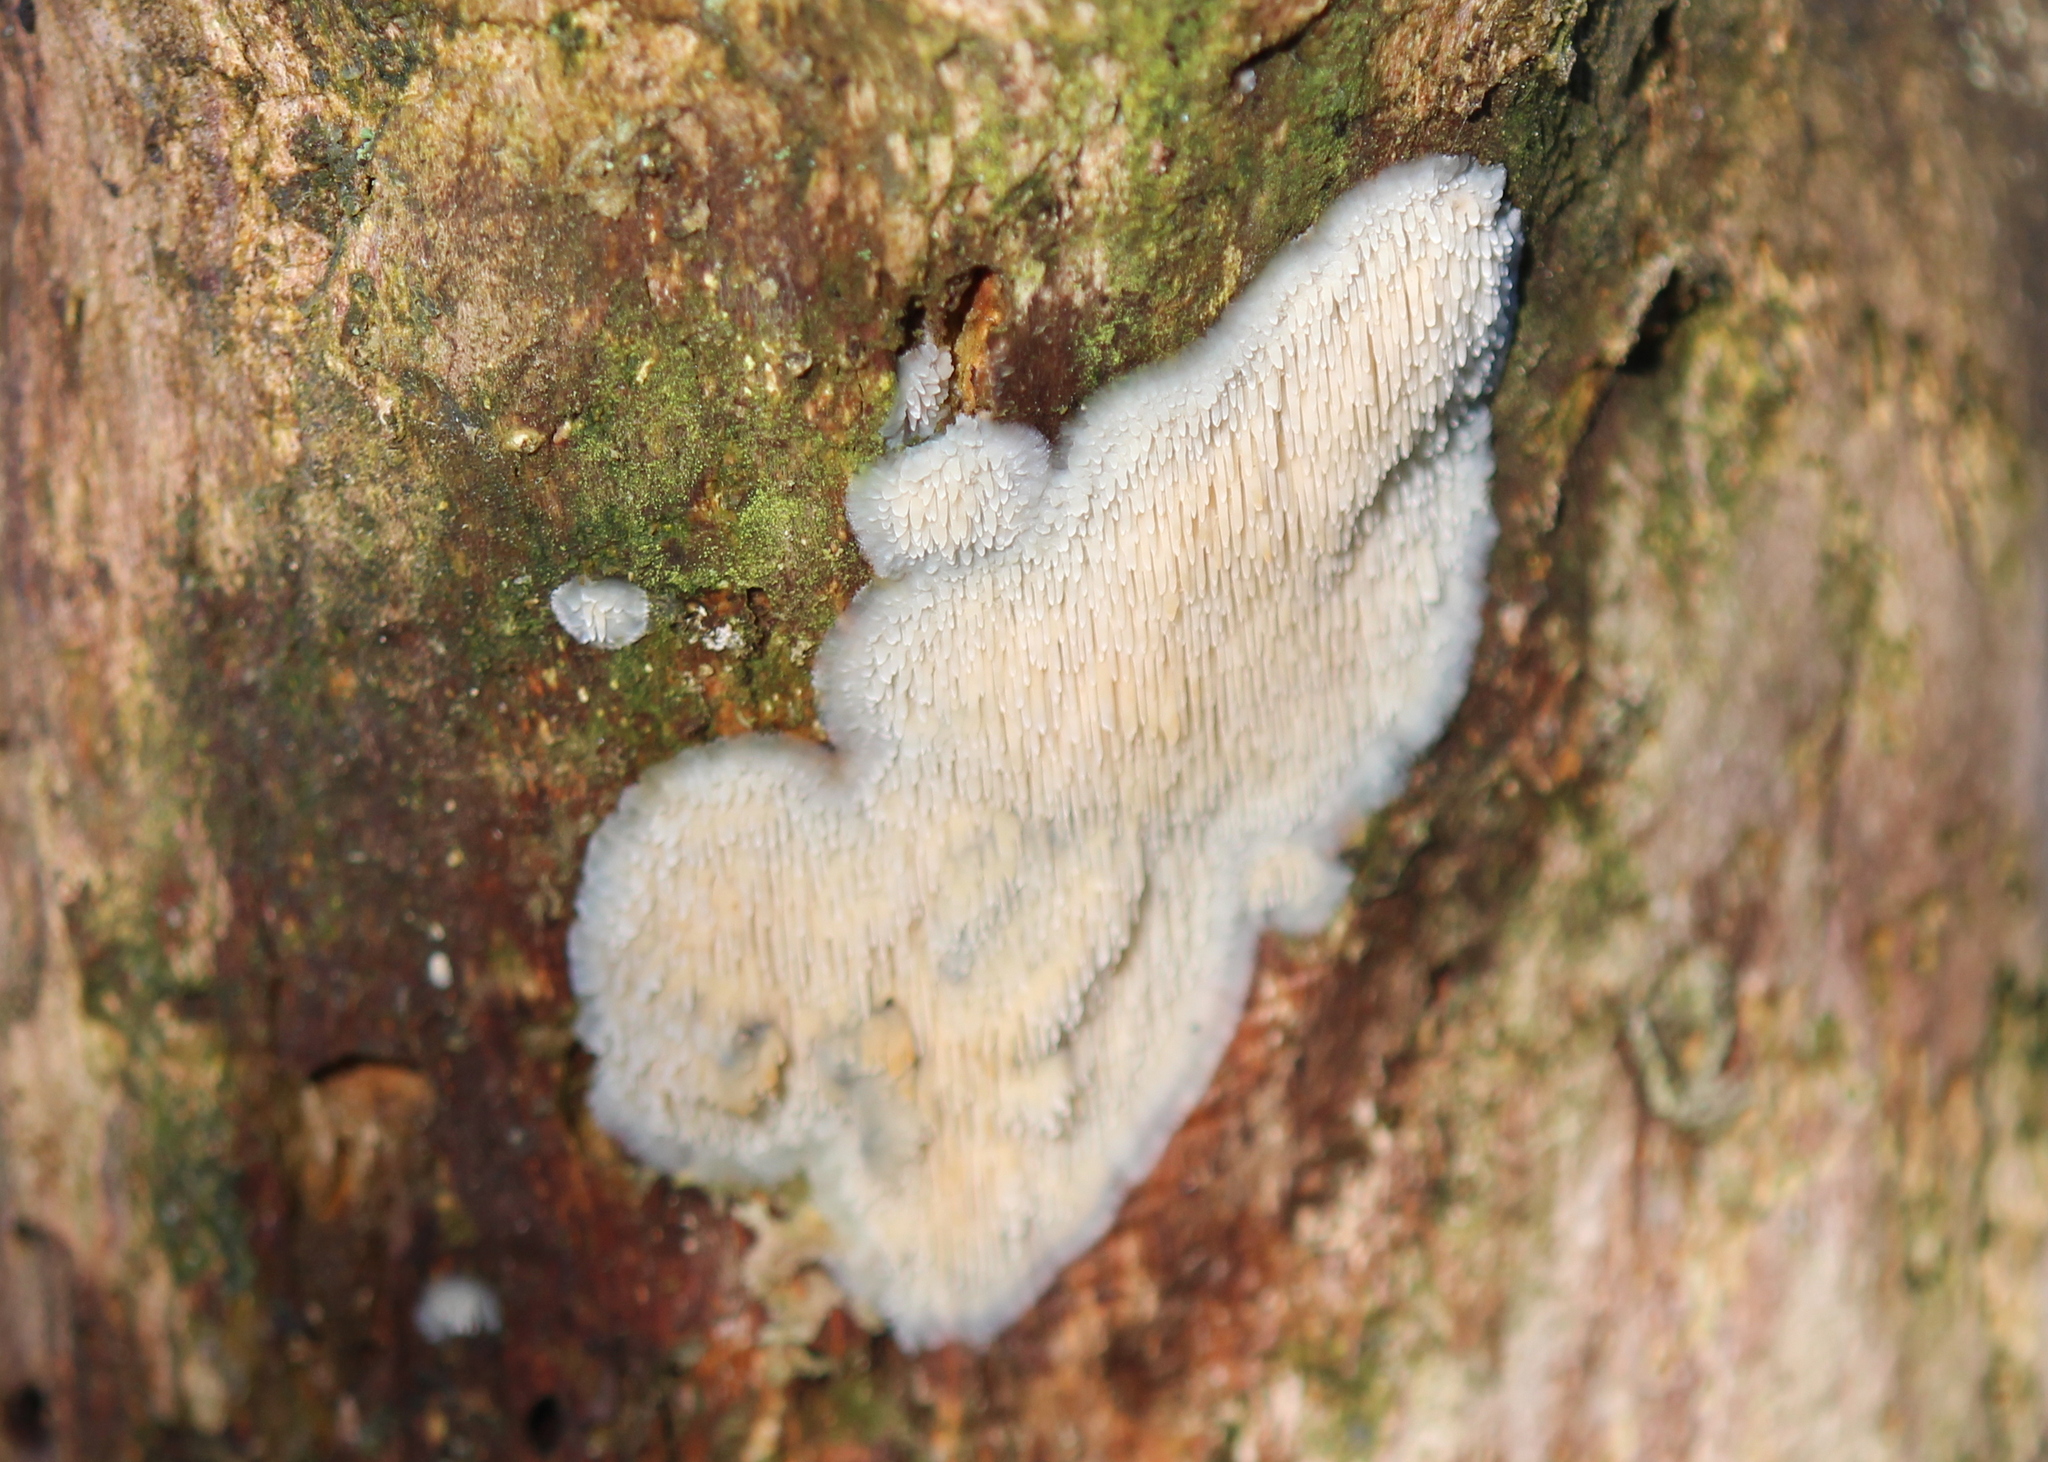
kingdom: Fungi
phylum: Basidiomycota
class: Agaricomycetes
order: Agaricales
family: Radulomycetaceae
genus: Radulomyces
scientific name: Radulomyces copelandii
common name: Asian beauty
